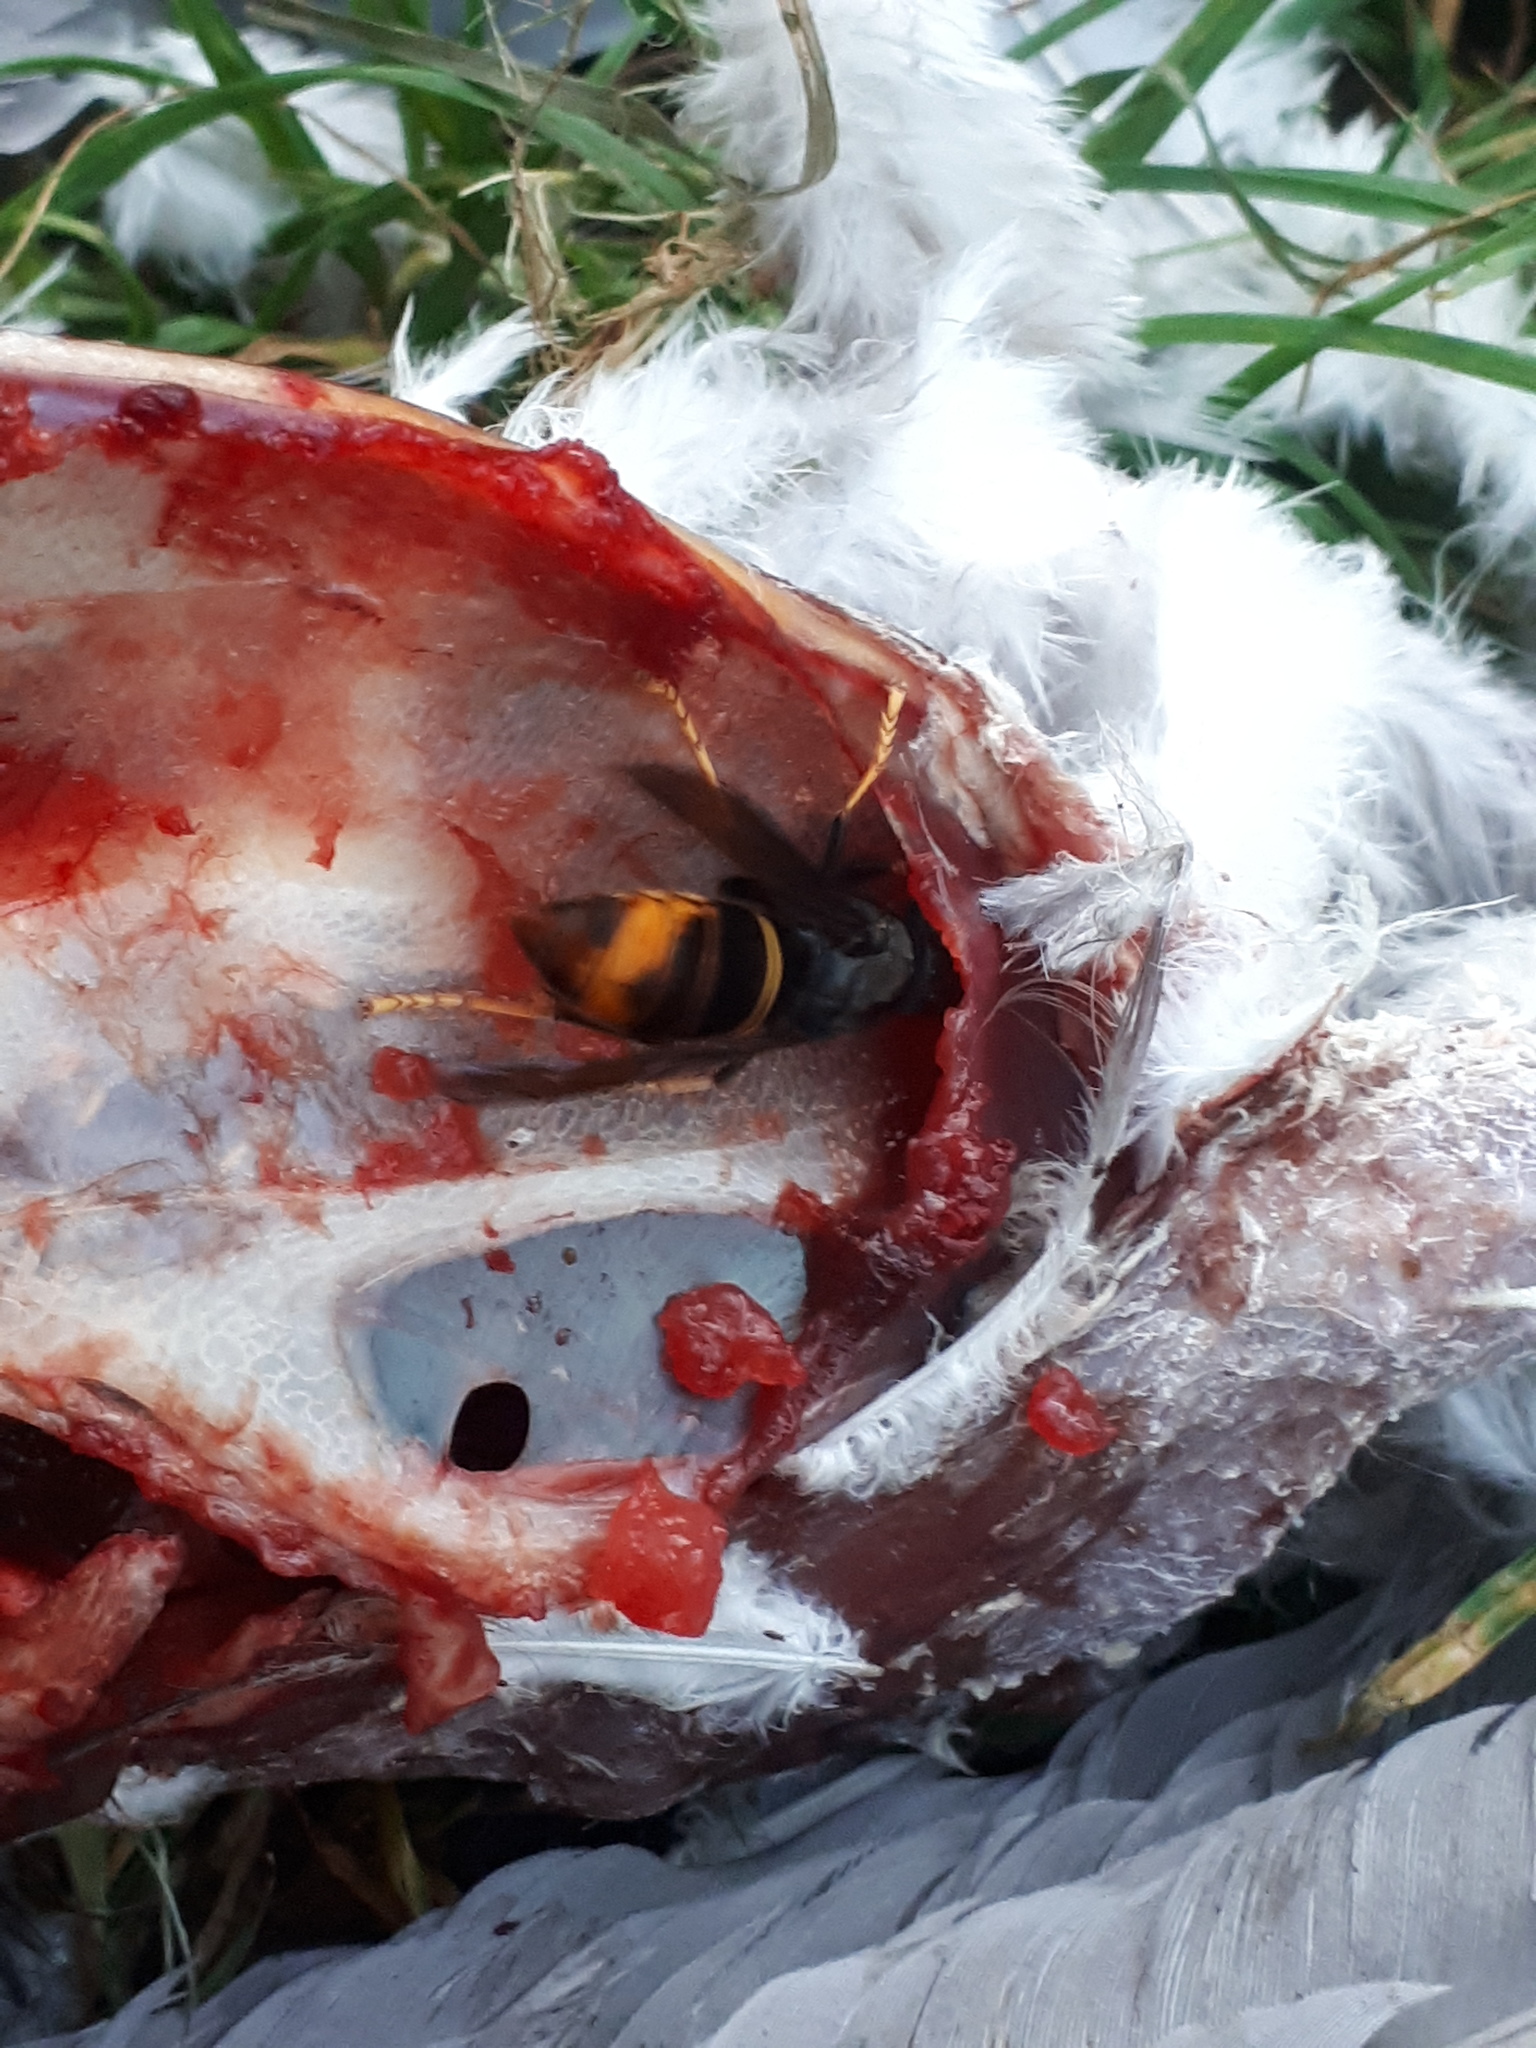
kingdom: Animalia
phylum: Arthropoda
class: Insecta
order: Hymenoptera
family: Vespidae
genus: Vespa
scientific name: Vespa velutina
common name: Asian hornet
